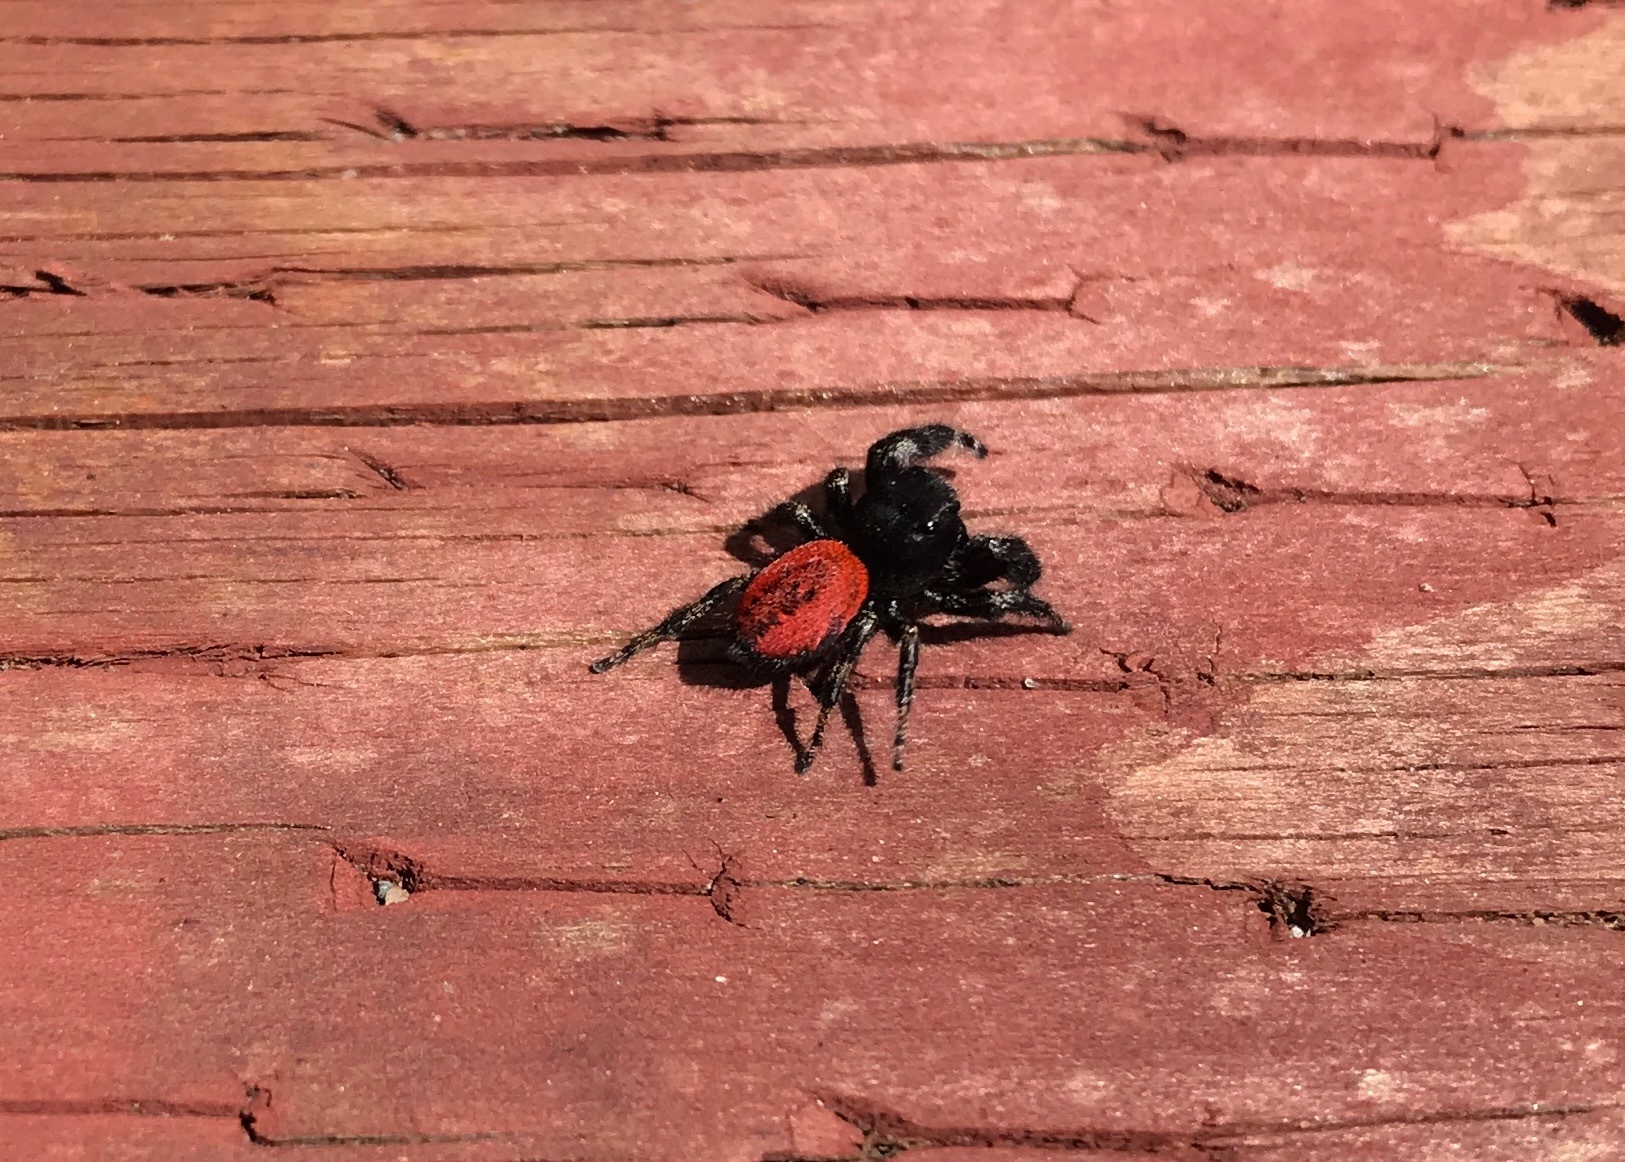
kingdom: Animalia
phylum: Arthropoda
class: Arachnida
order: Araneae
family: Salticidae
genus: Phidippus
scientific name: Phidippus johnsoni
